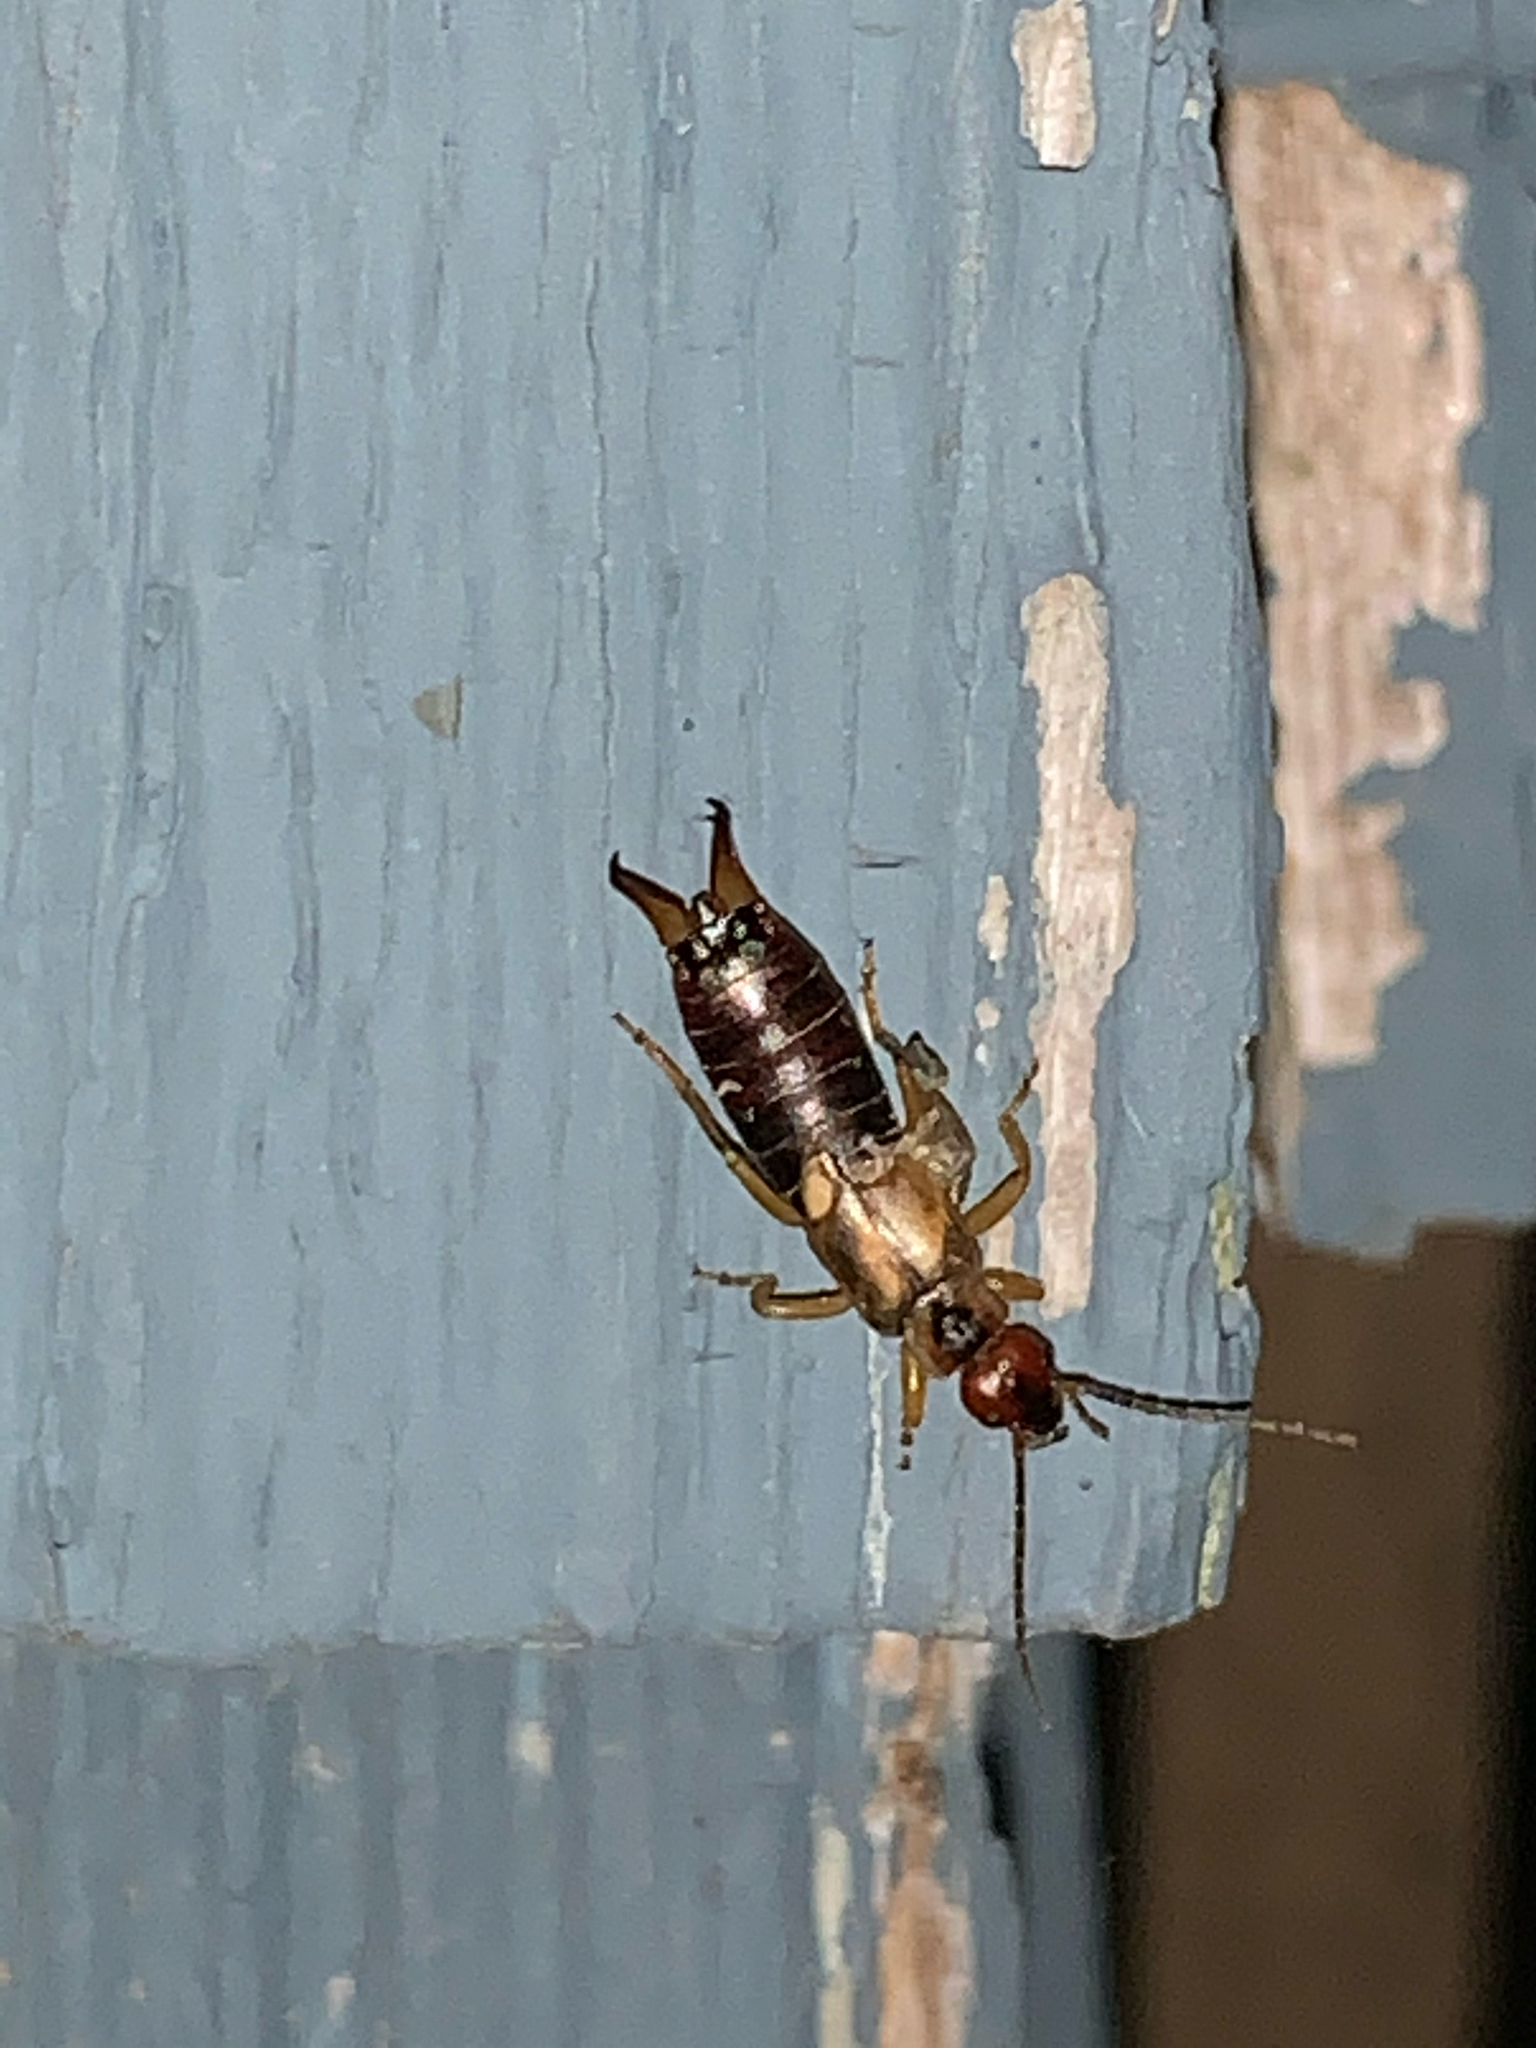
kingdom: Animalia
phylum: Arthropoda
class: Insecta
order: Dermaptera
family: Forficulidae
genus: Forficula
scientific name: Forficula
